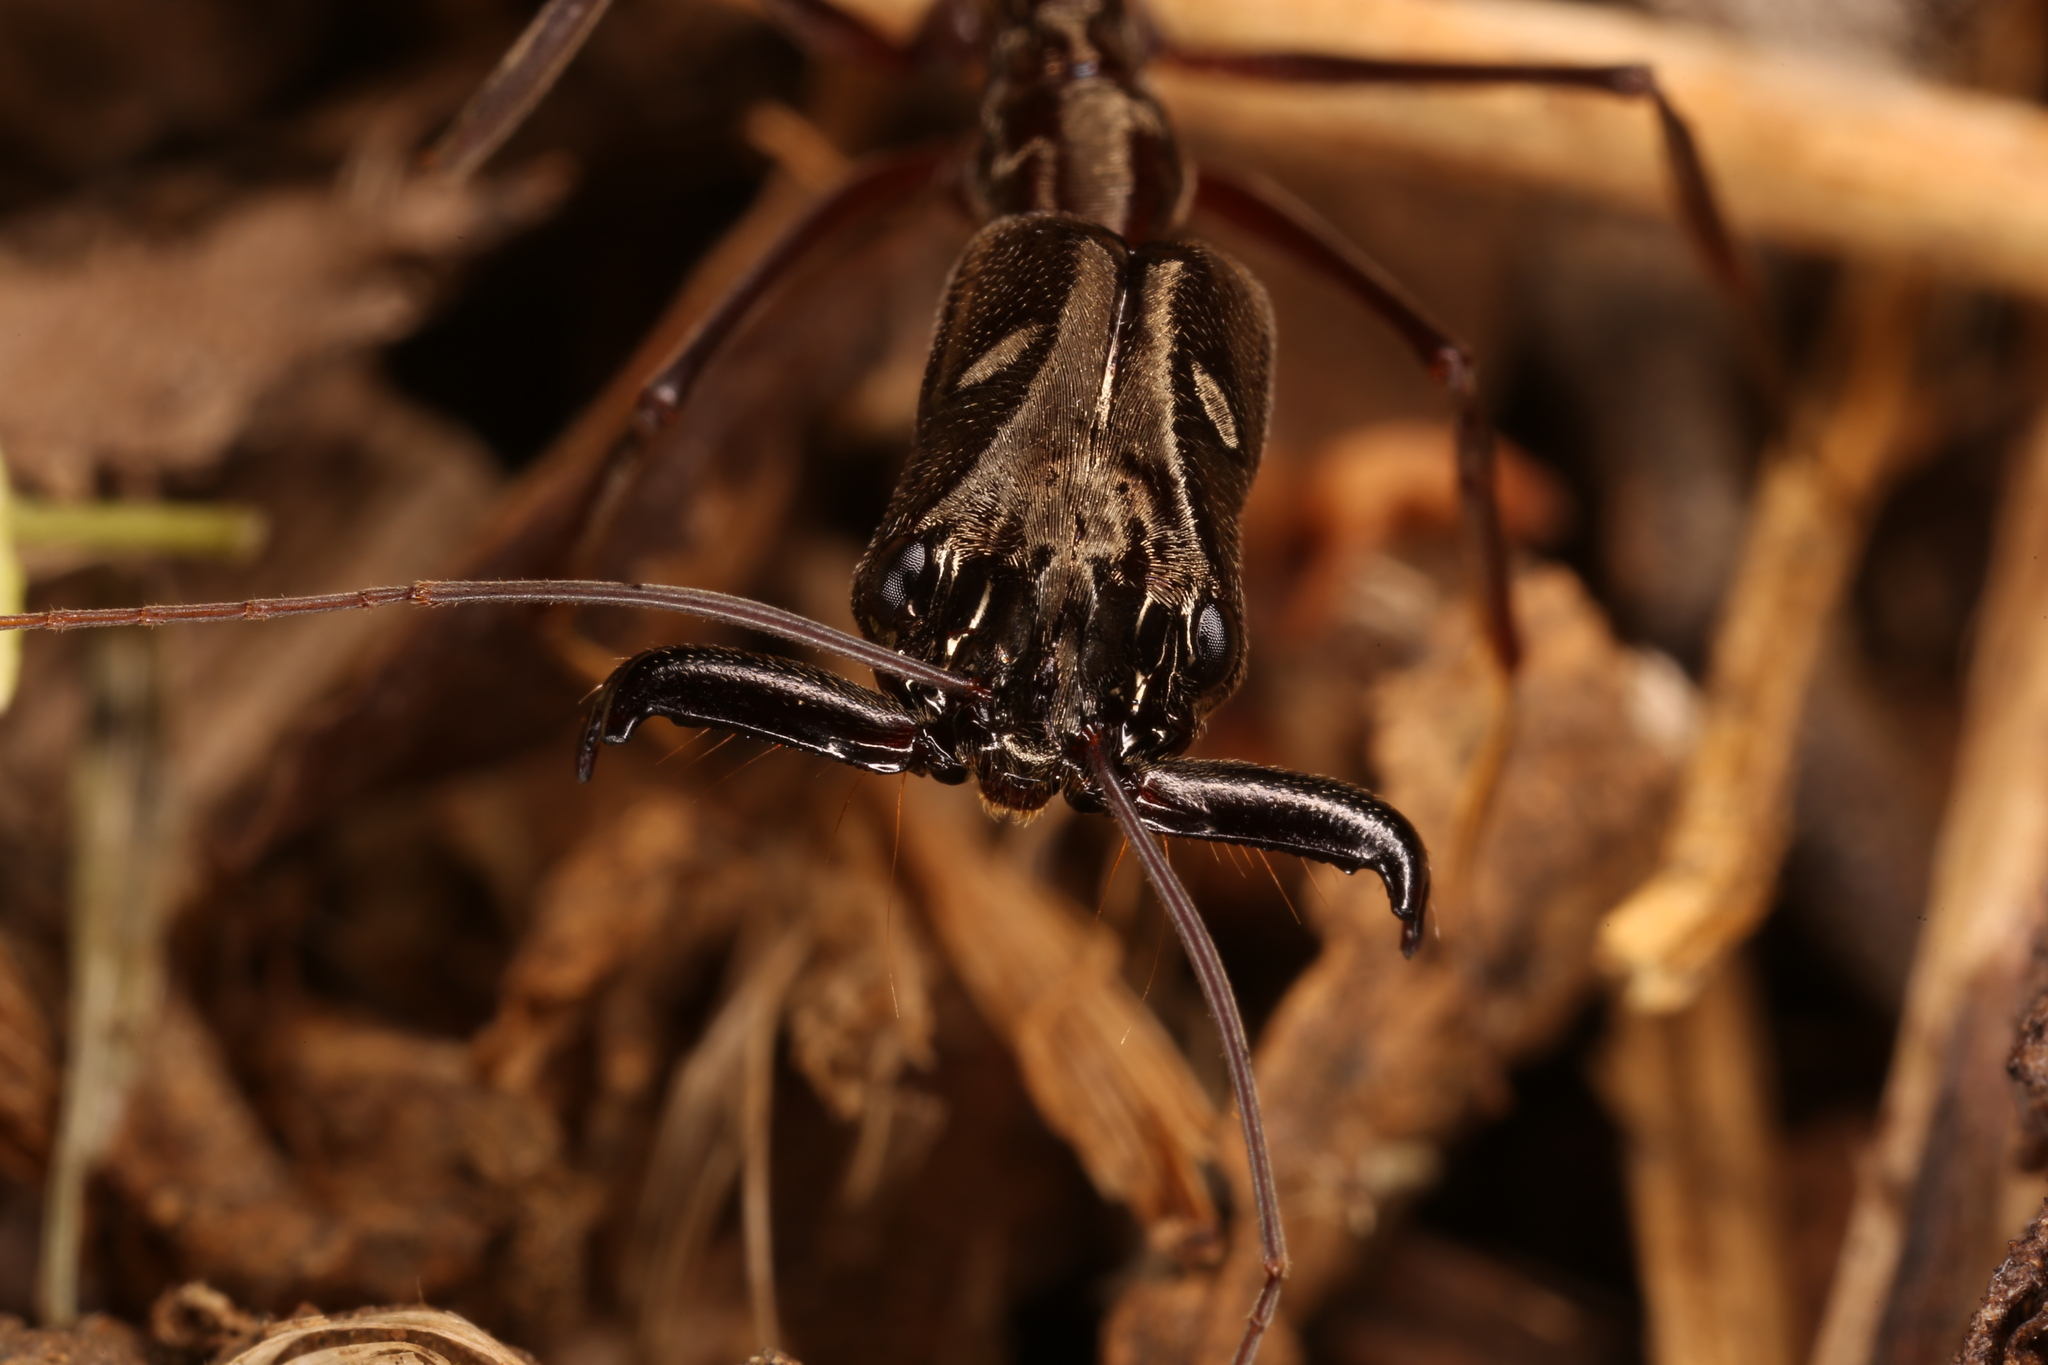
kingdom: Animalia
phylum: Arthropoda
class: Insecta
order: Hymenoptera
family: Formicidae
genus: Odontomachus
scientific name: Odontomachus chelifer
